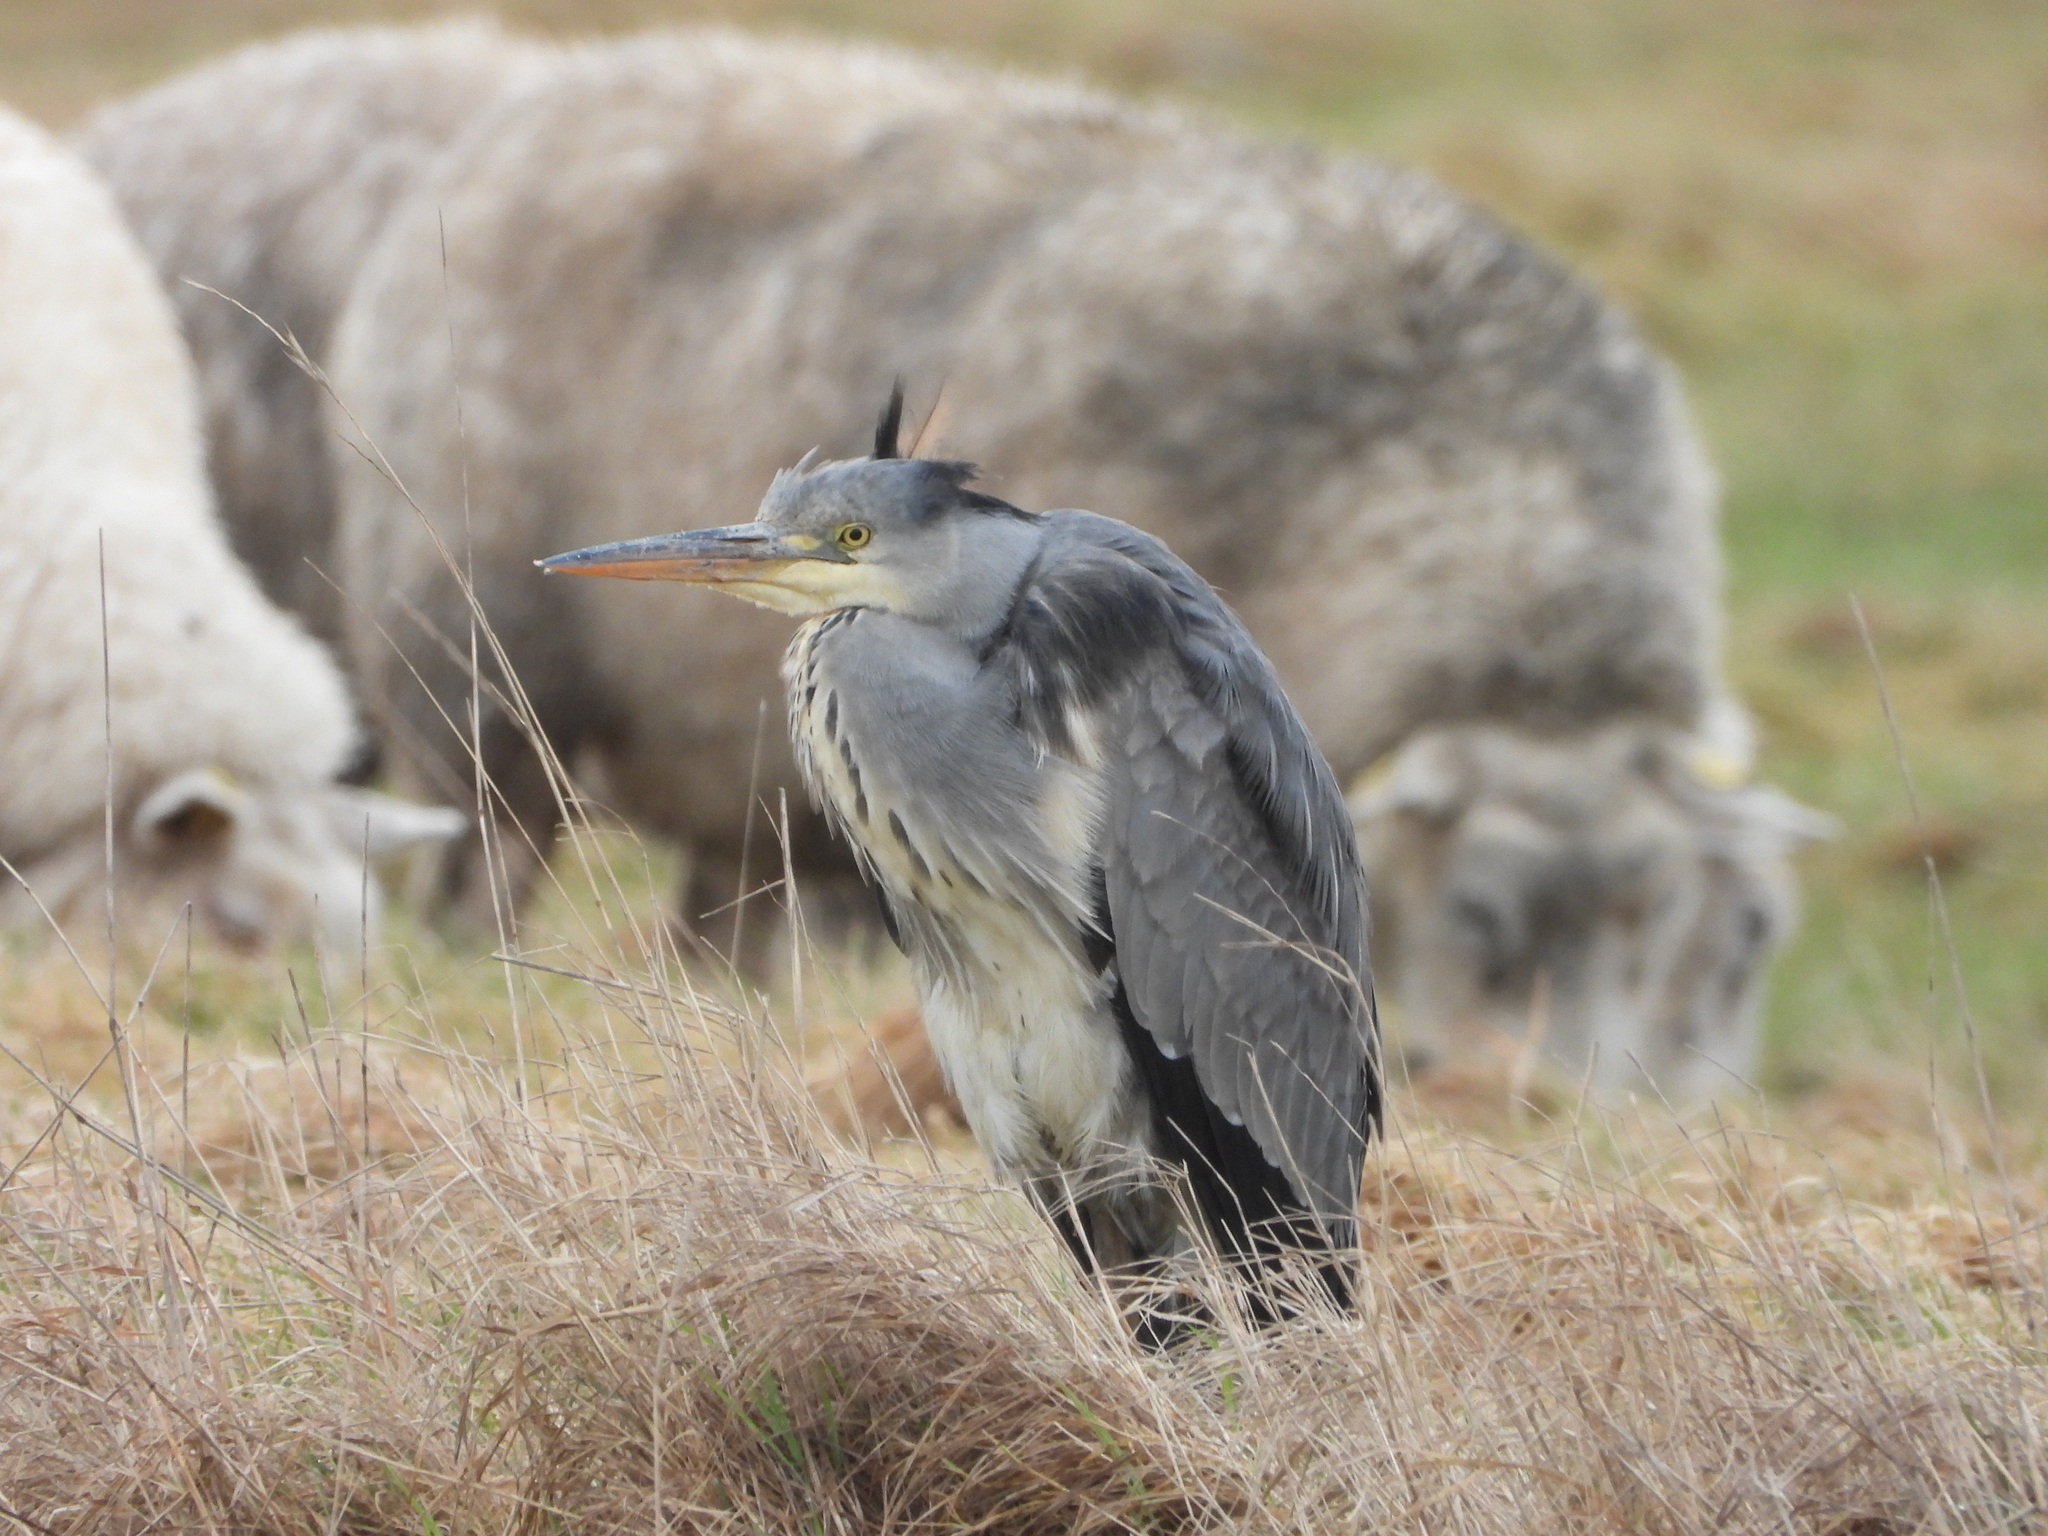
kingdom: Animalia
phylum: Chordata
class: Aves
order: Pelecaniformes
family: Ardeidae
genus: Ardea
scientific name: Ardea cinerea
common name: Grey heron
